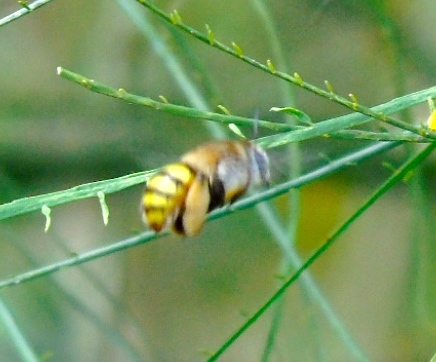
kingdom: Animalia
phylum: Arthropoda
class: Insecta
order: Hymenoptera
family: Apidae
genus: Centris
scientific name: Centris
